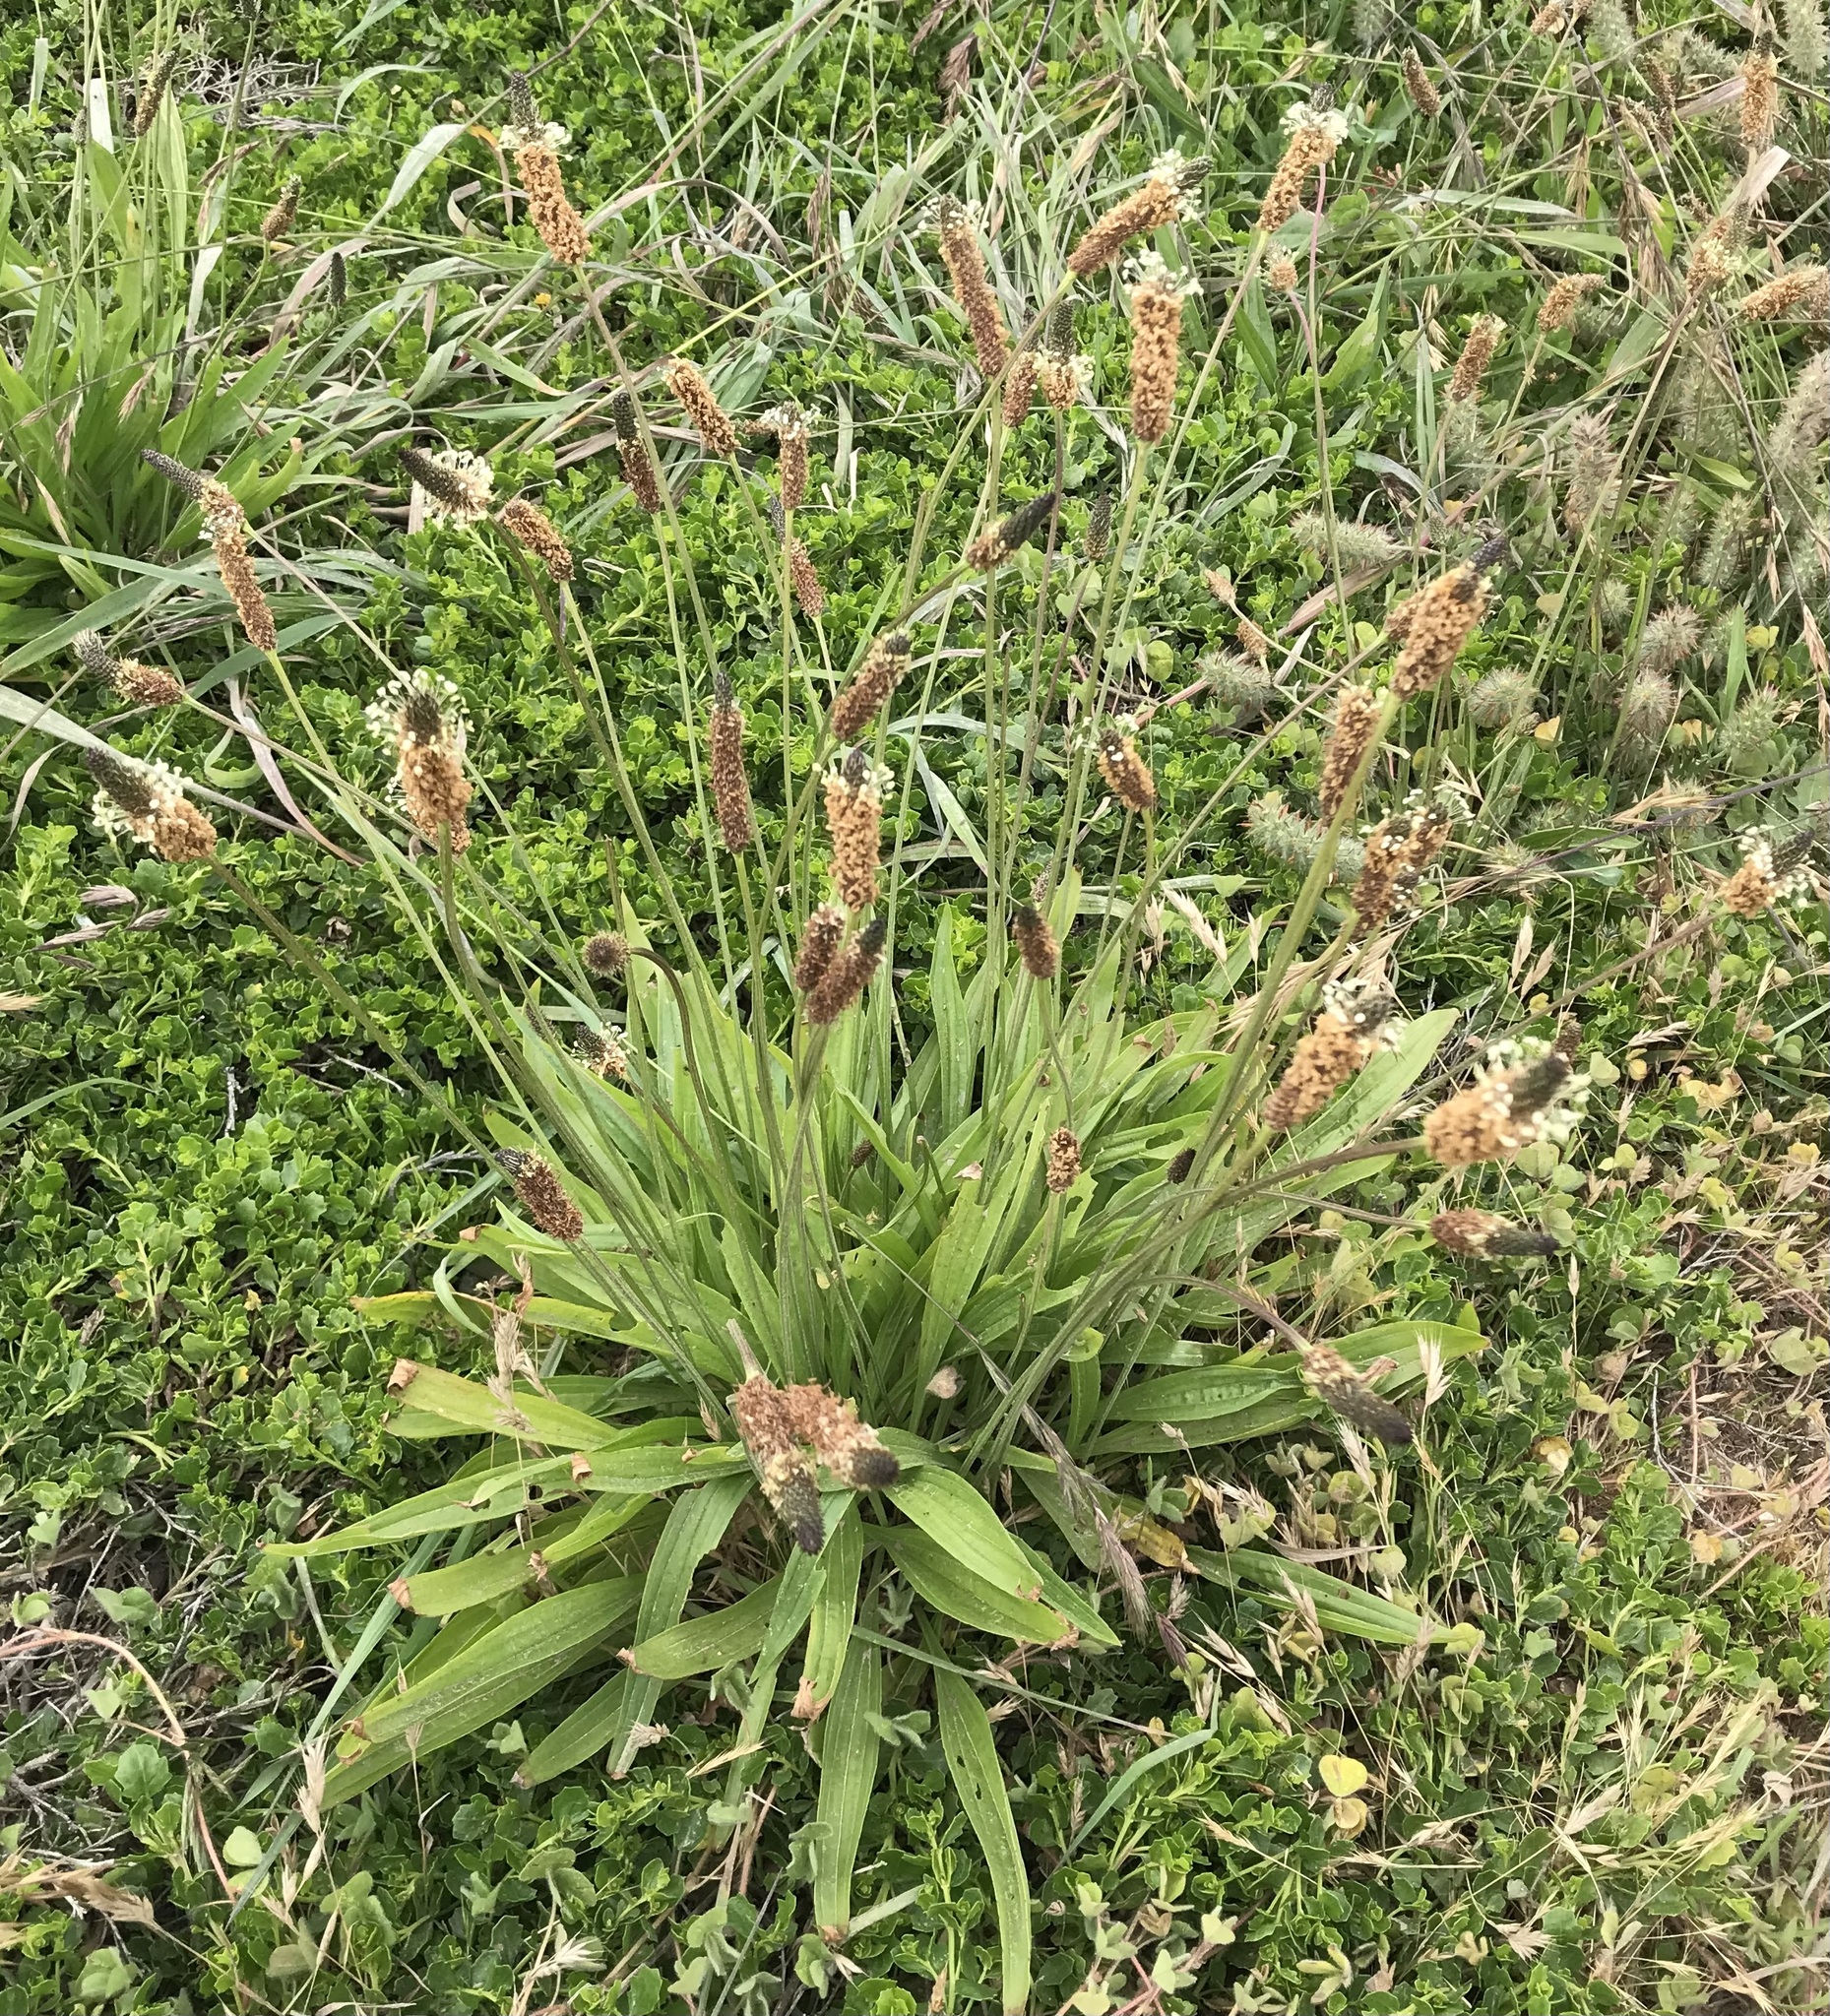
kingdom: Plantae
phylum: Tracheophyta
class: Magnoliopsida
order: Lamiales
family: Plantaginaceae
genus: Plantago
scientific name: Plantago lanceolata
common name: Ribwort plantain
